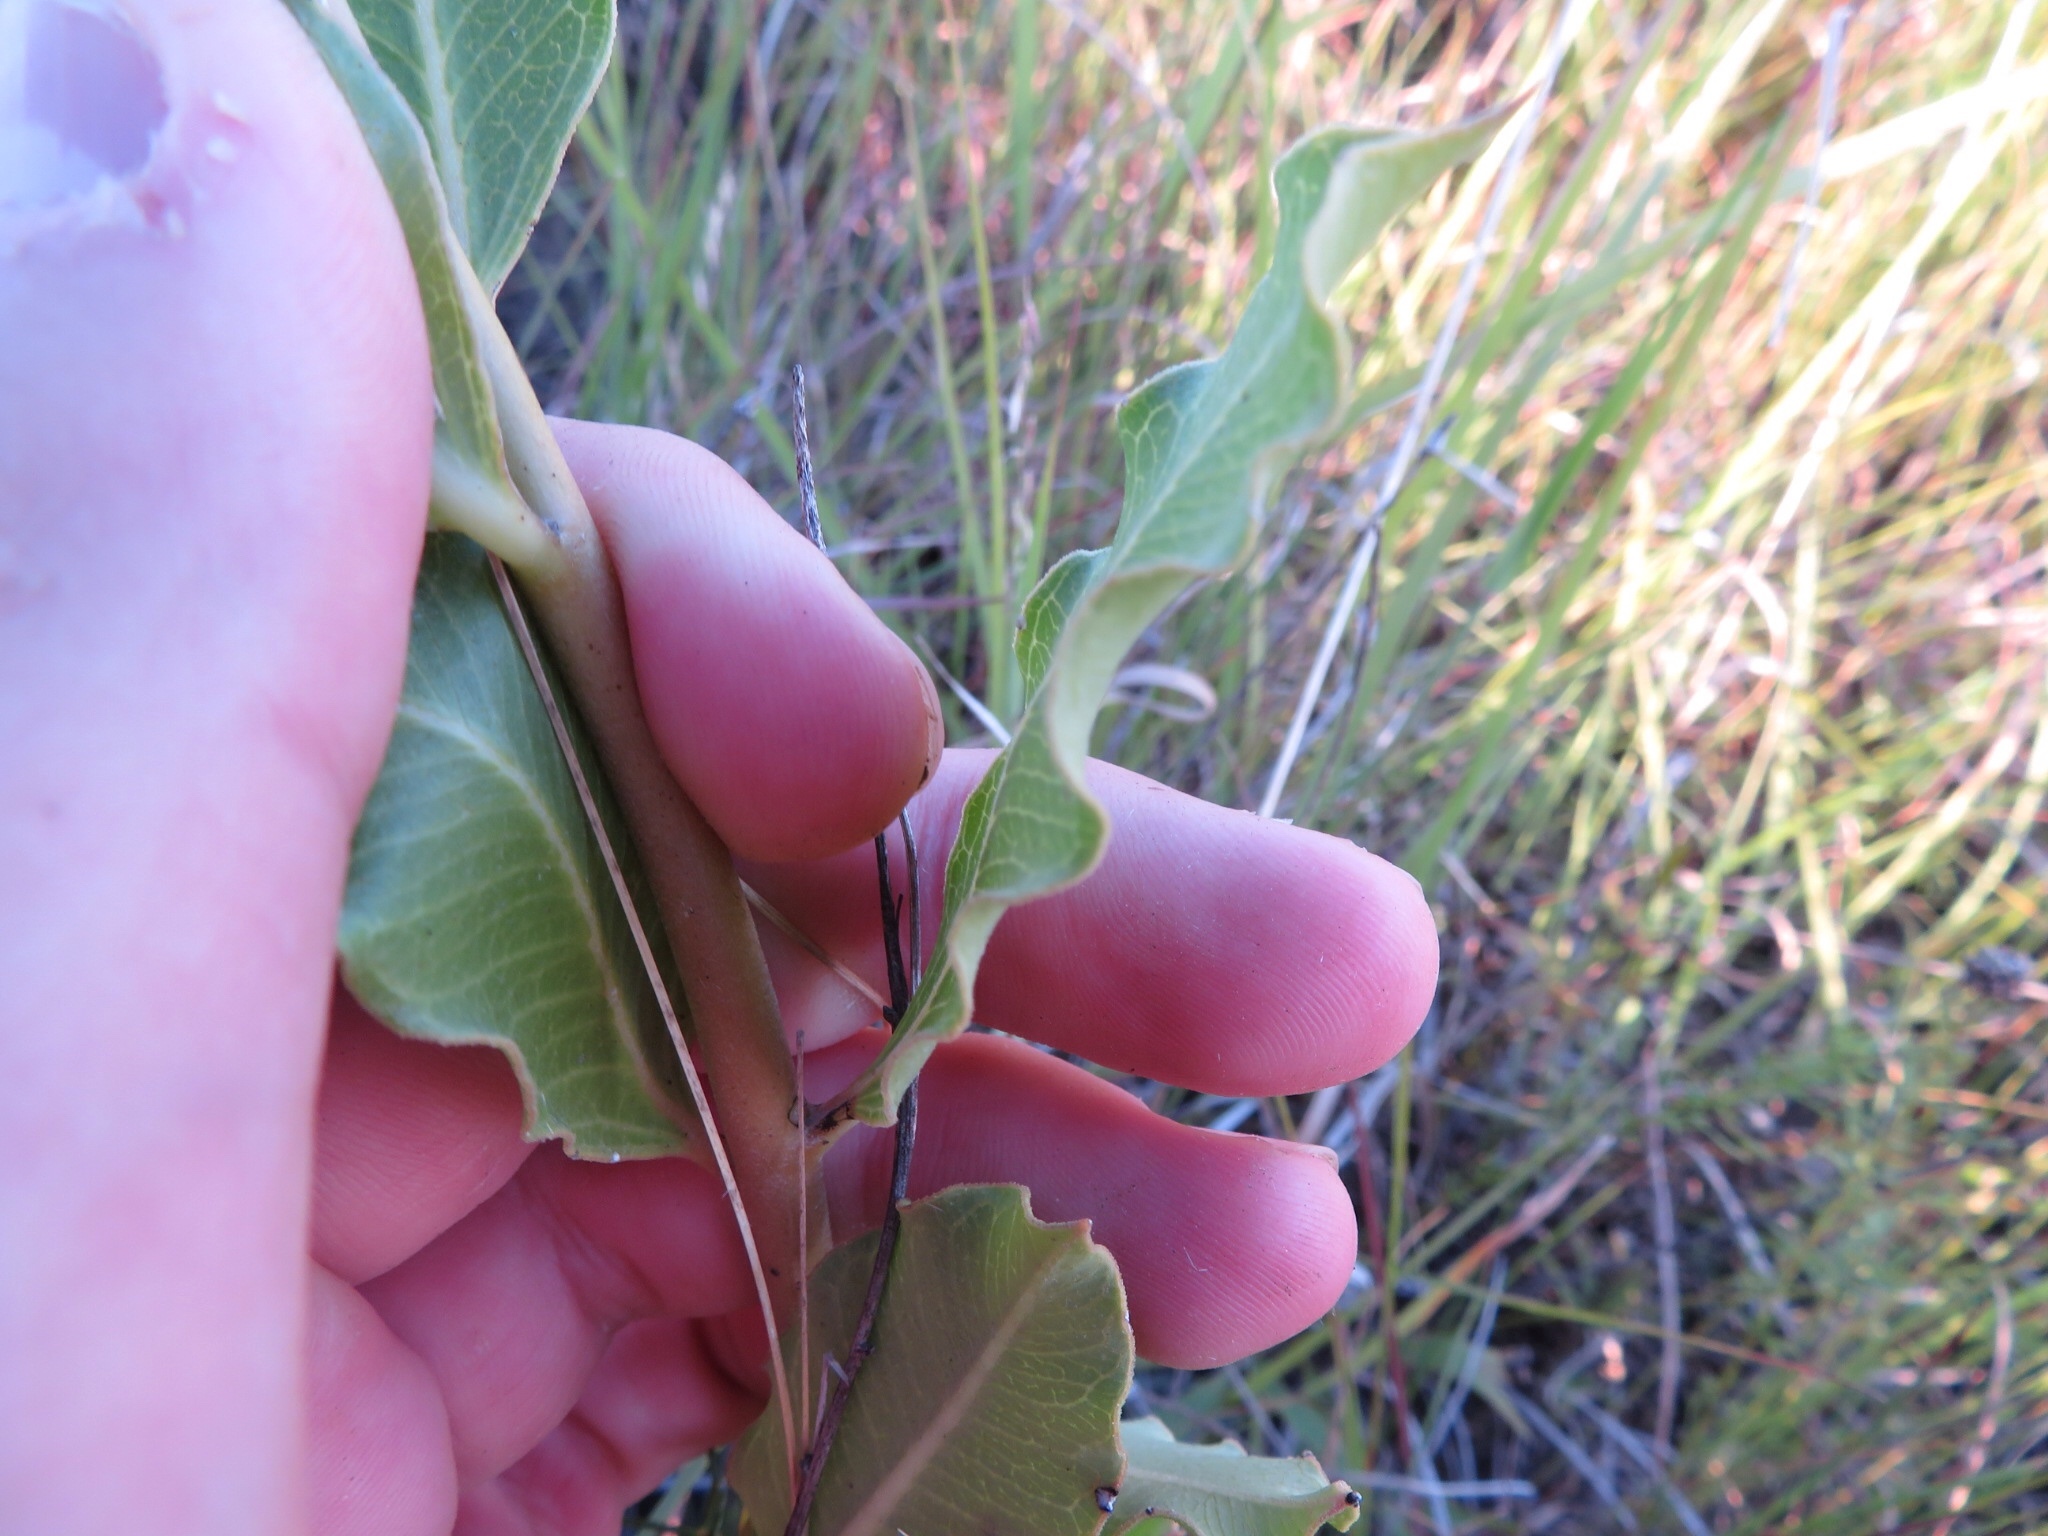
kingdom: Plantae
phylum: Tracheophyta
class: Magnoliopsida
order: Gentianales
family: Apocynaceae
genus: Asclepias
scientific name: Asclepias viridiflora
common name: Green comet milkweed
